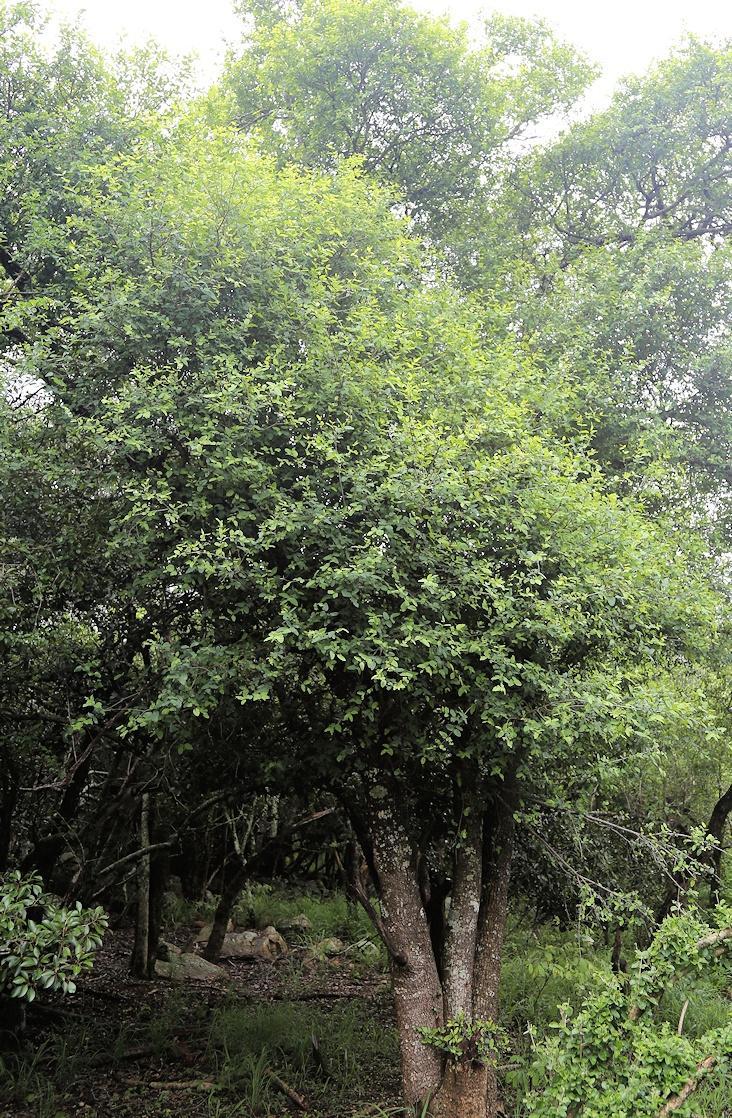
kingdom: Plantae
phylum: Tracheophyta
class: Magnoliopsida
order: Rosales
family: Rhamnaceae
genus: Phyllogeiton
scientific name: Phyllogeiton zeyheri
